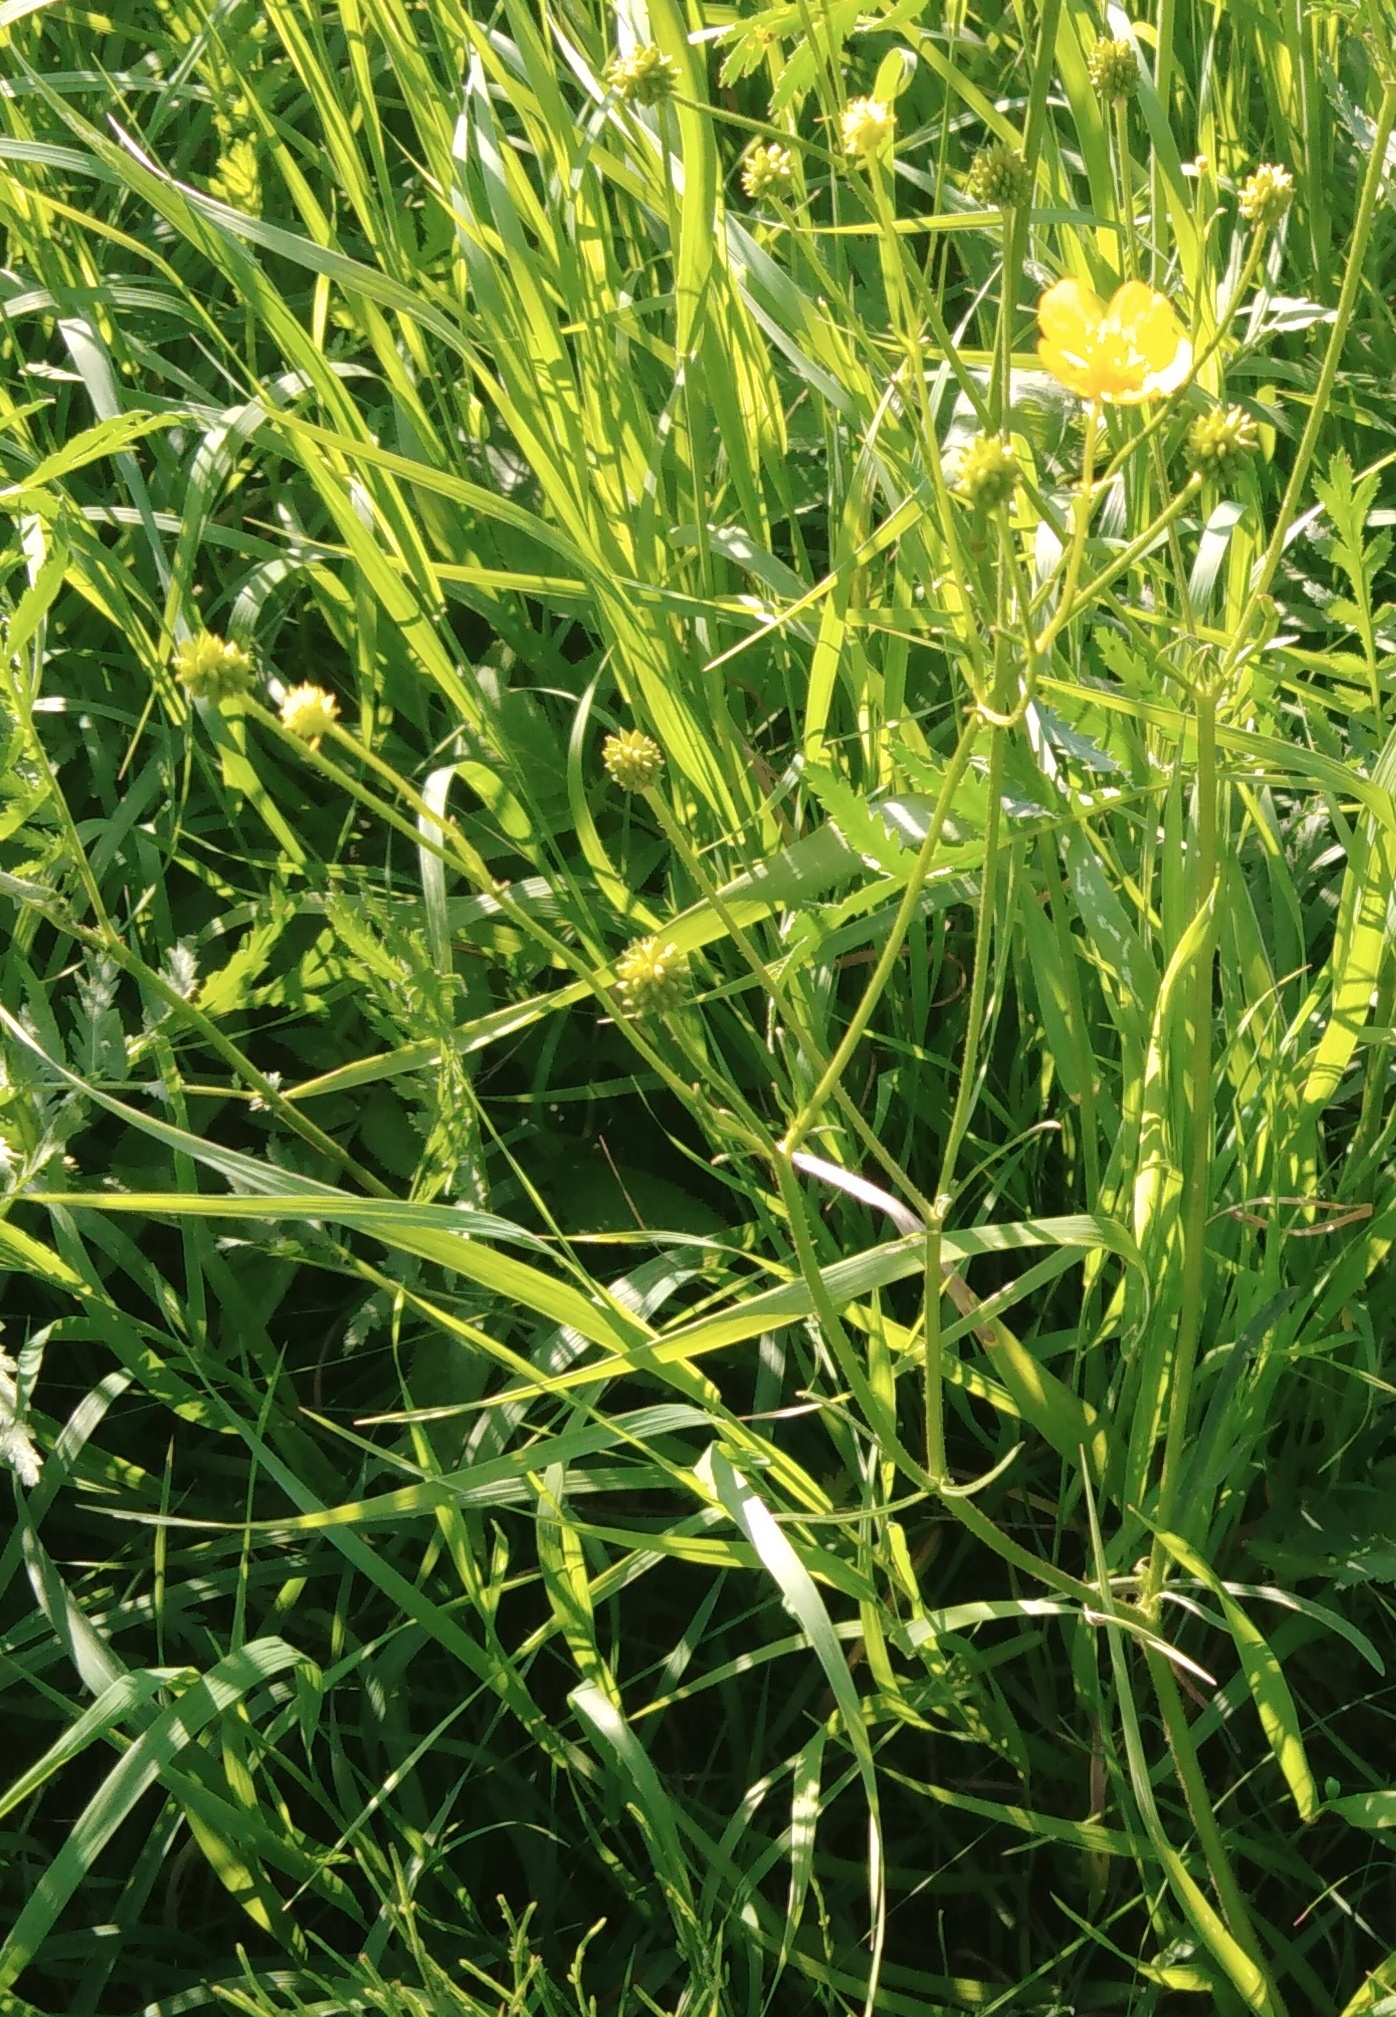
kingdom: Plantae
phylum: Tracheophyta
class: Magnoliopsida
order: Ranunculales
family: Ranunculaceae
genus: Ranunculus
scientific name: Ranunculus polyanthemos
